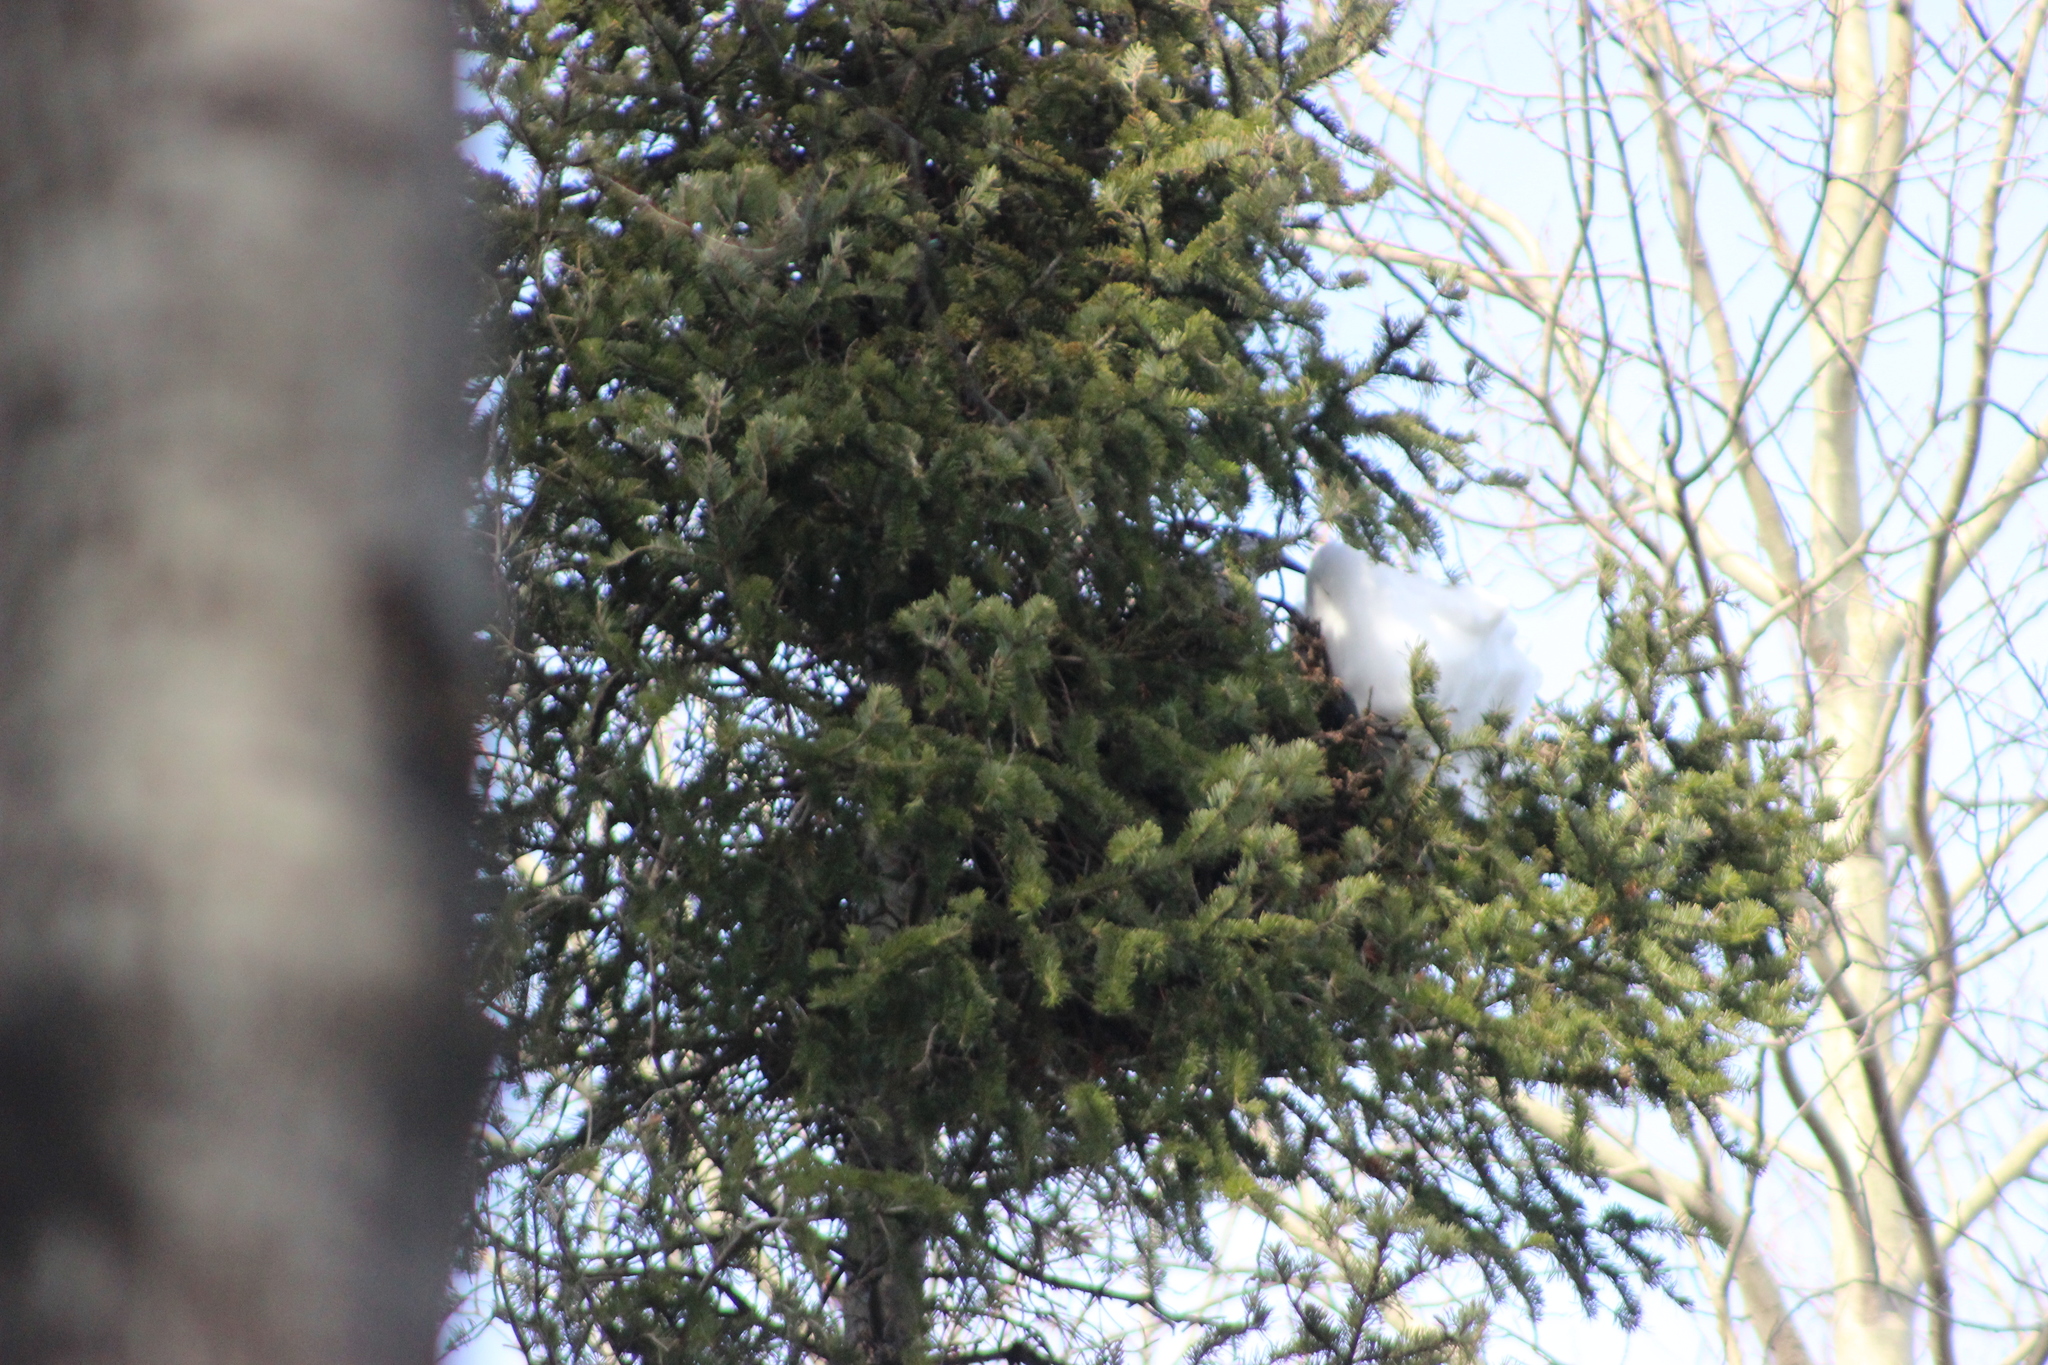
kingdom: Animalia
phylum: Chordata
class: Aves
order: Passeriformes
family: Corvidae
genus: Nucifraga
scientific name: Nucifraga caryocatactes
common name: Spotted nutcracker
